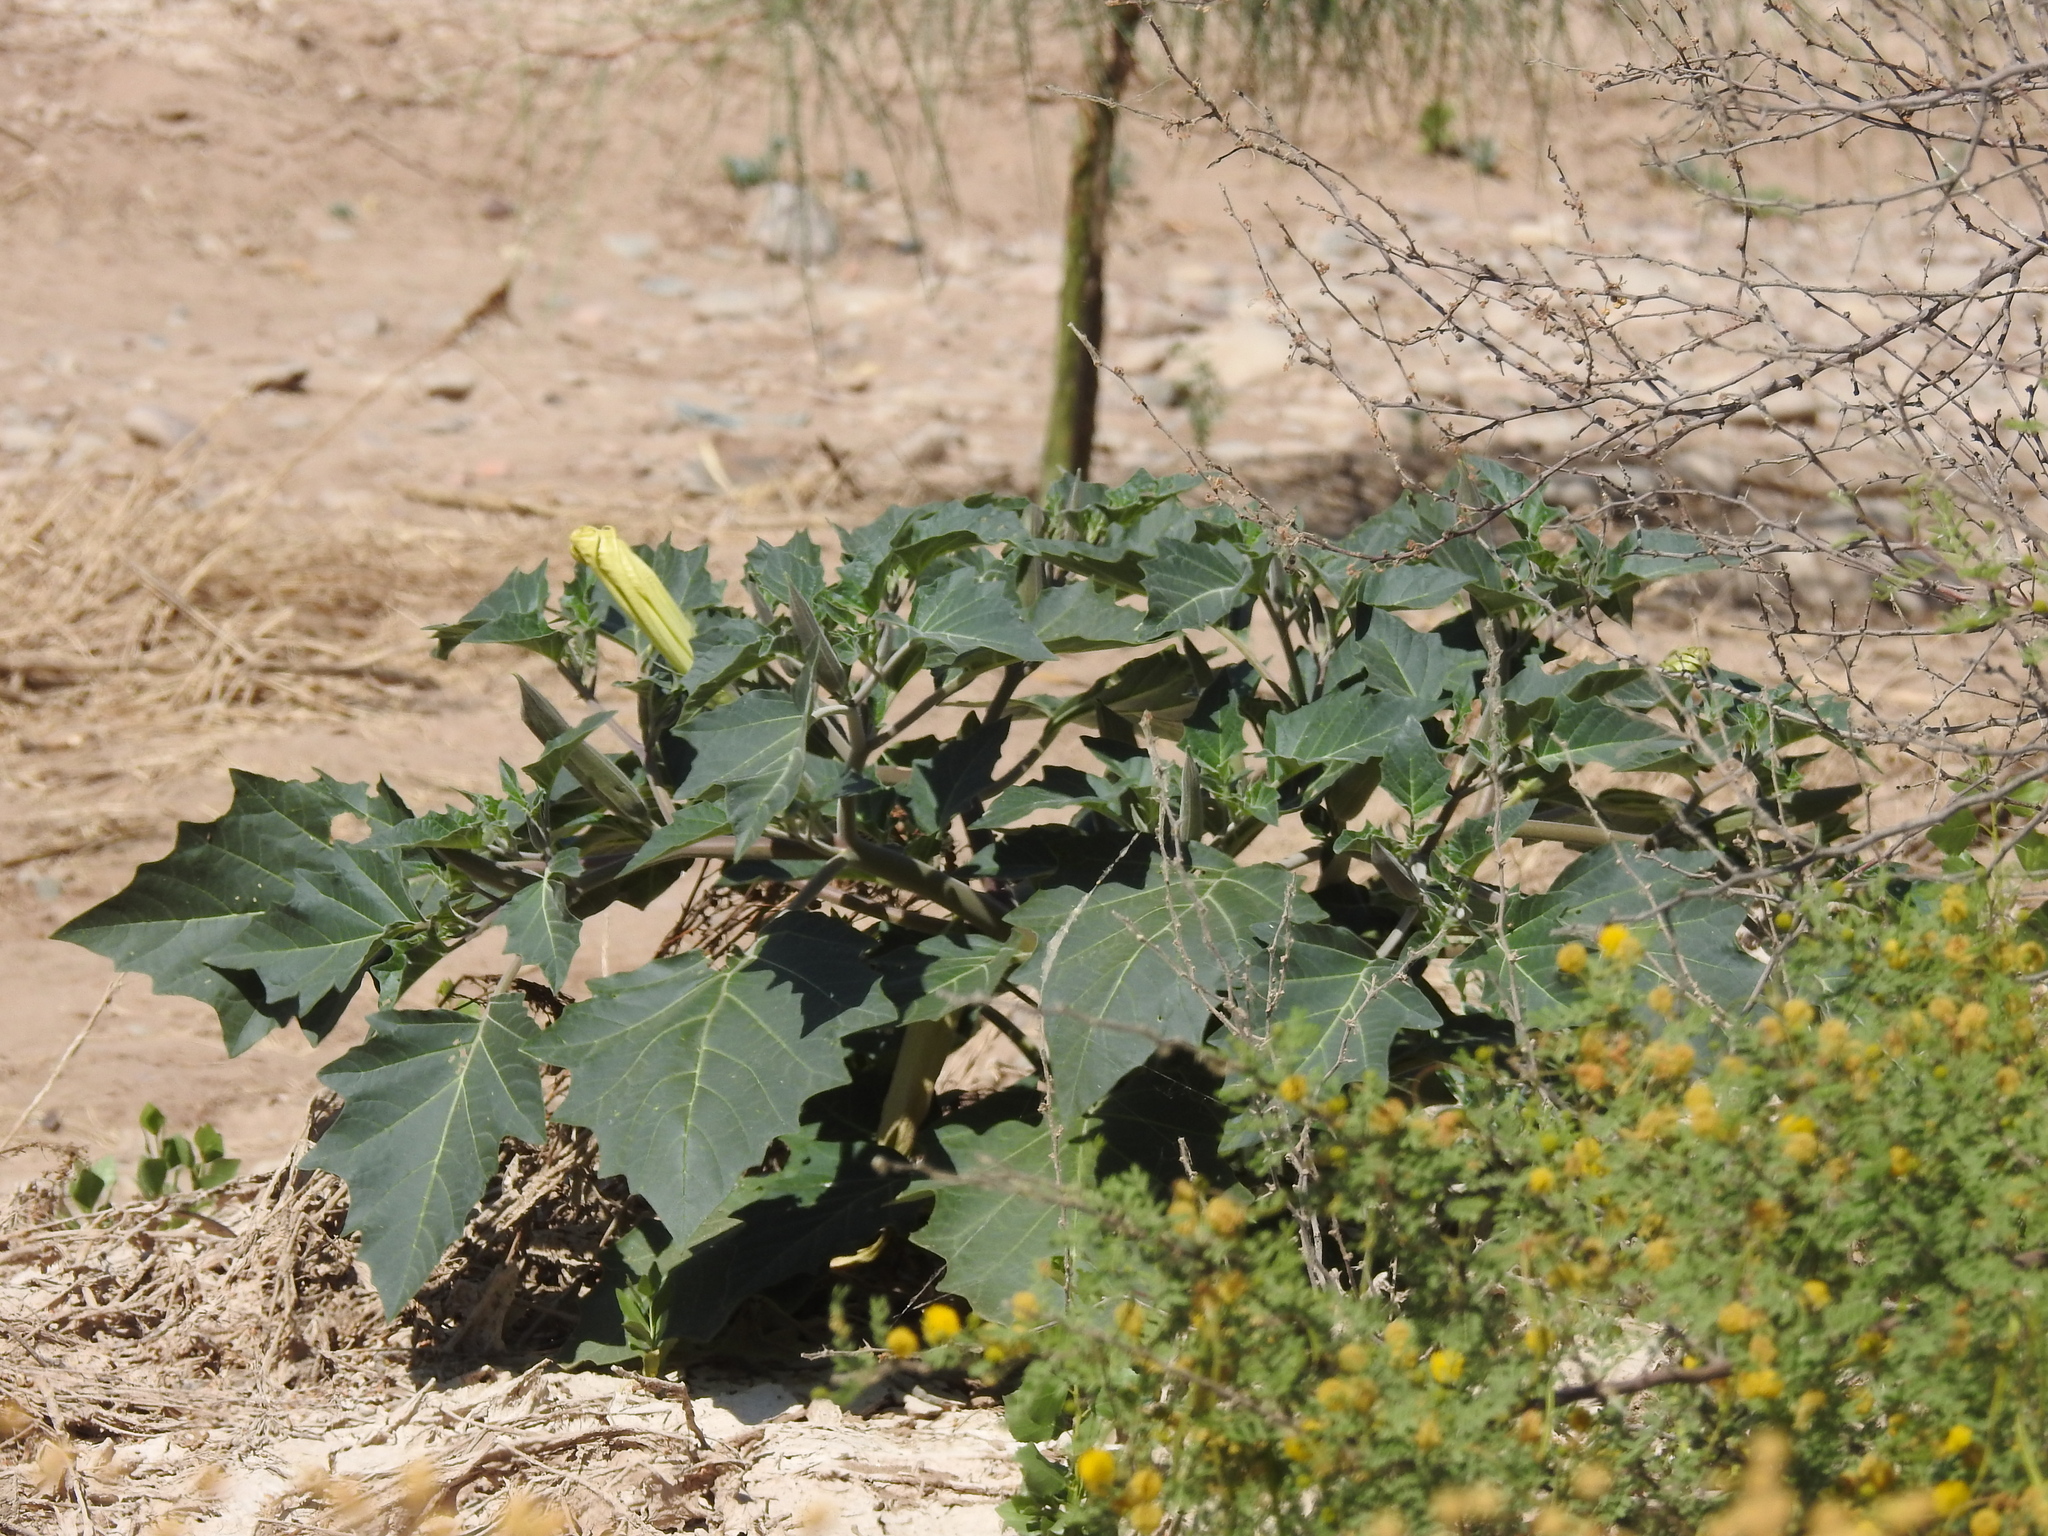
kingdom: Plantae
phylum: Tracheophyta
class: Magnoliopsida
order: Solanales
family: Solanaceae
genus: Datura
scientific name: Datura wrightii
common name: Sacred thorn-apple
